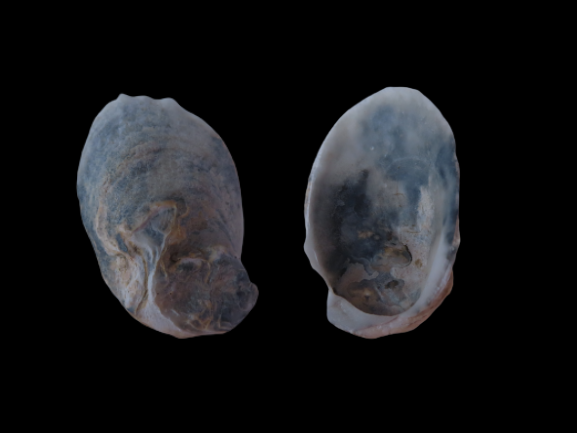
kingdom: Animalia
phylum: Mollusca
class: Bivalvia
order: Ostreida
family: Ostreidae
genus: Crassostrea
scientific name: Crassostrea virginica
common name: American oyster
